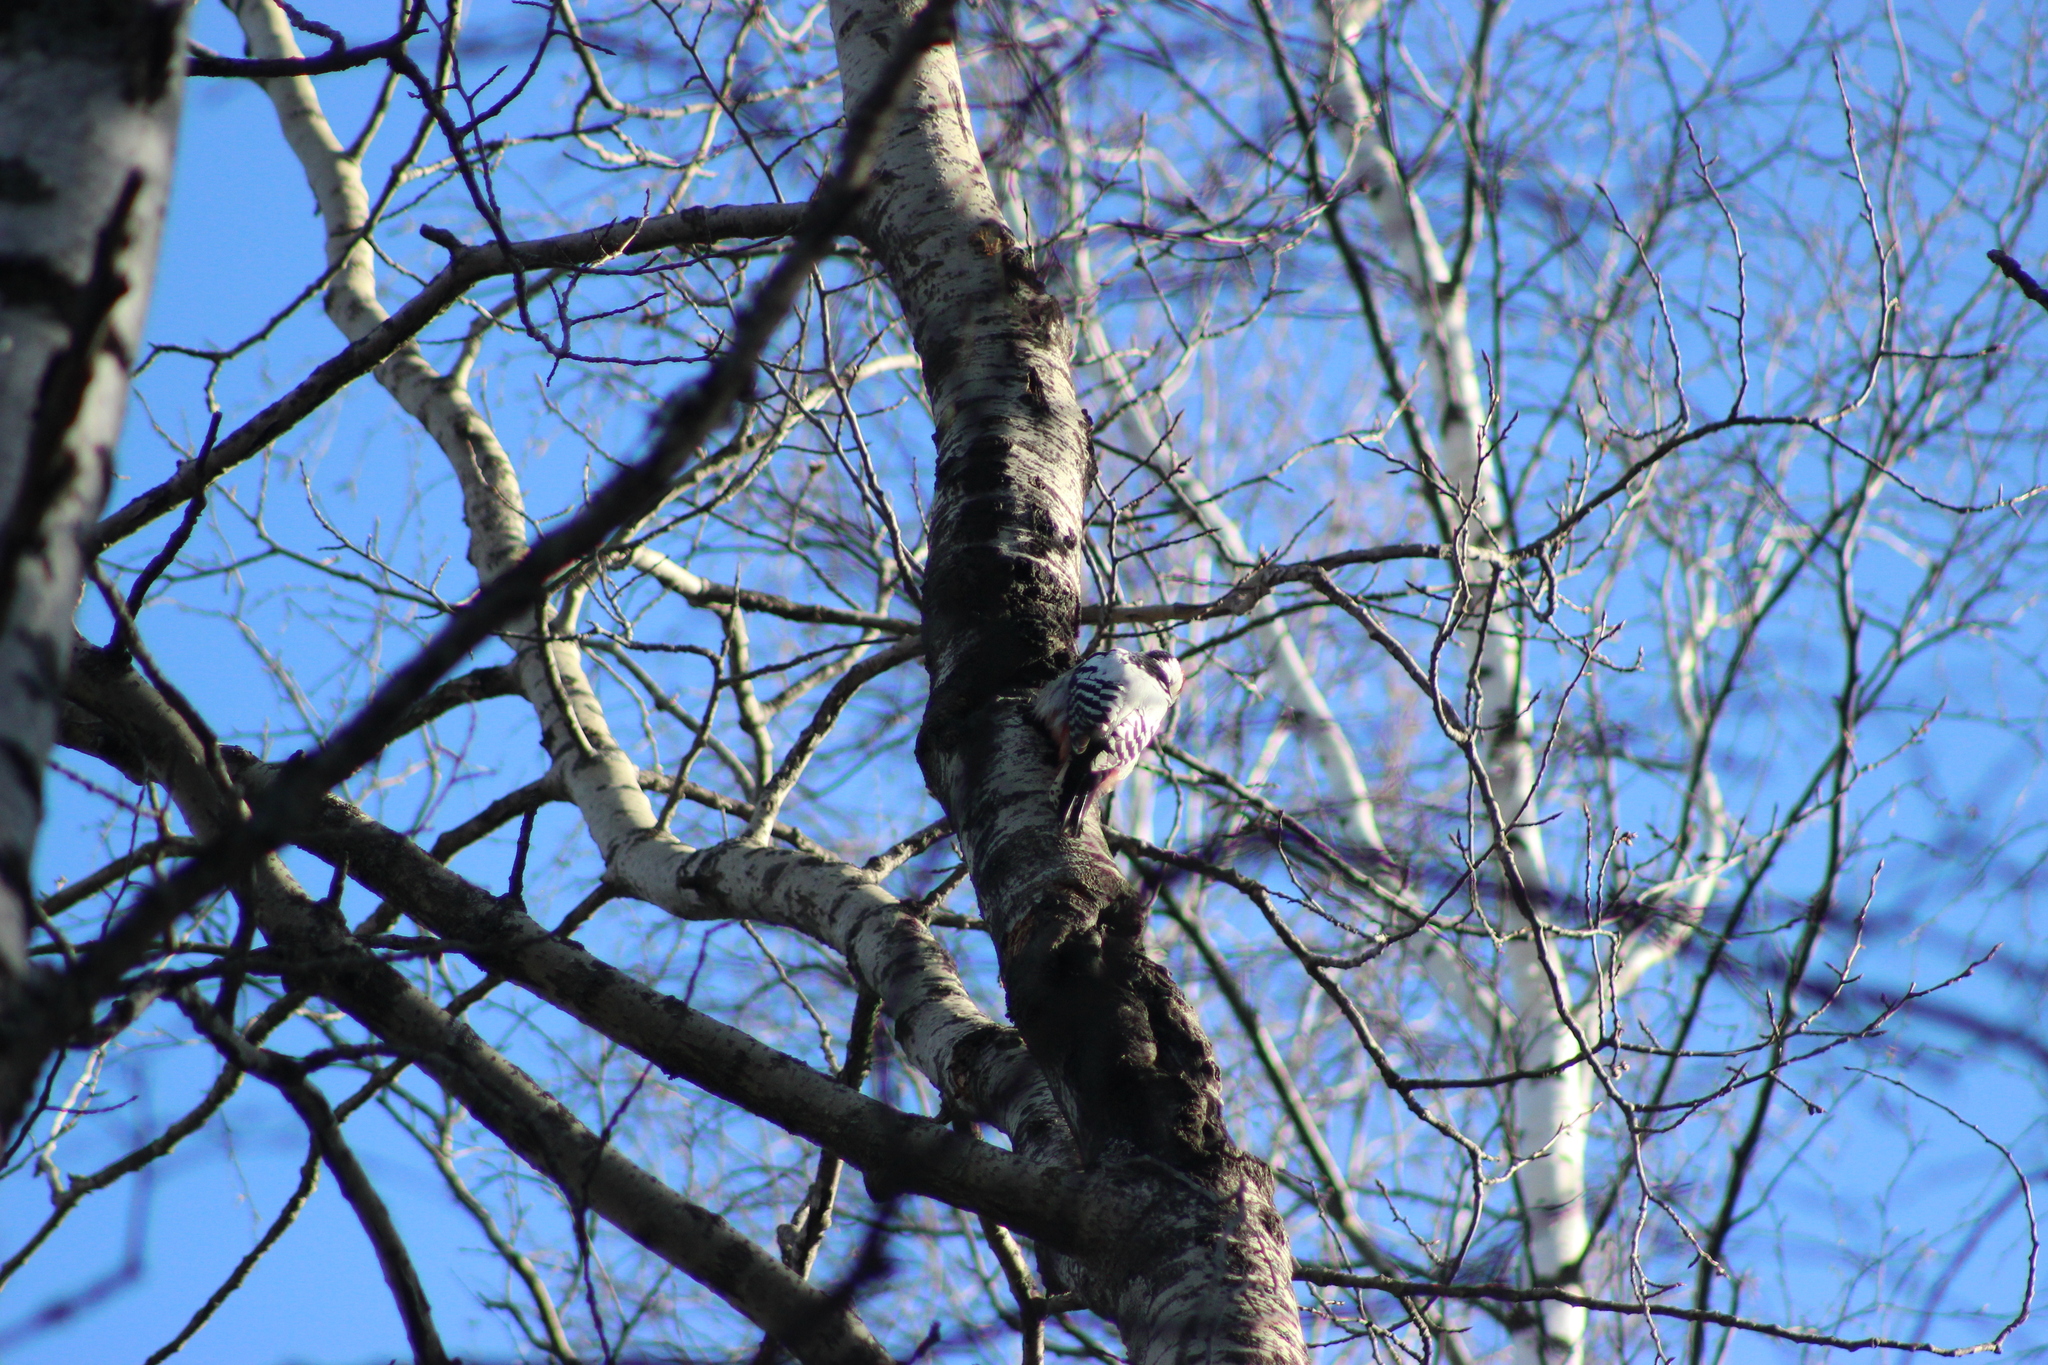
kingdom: Animalia
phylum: Chordata
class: Aves
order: Piciformes
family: Picidae
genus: Dendrocopos
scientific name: Dendrocopos leucotos
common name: White-backed woodpecker
